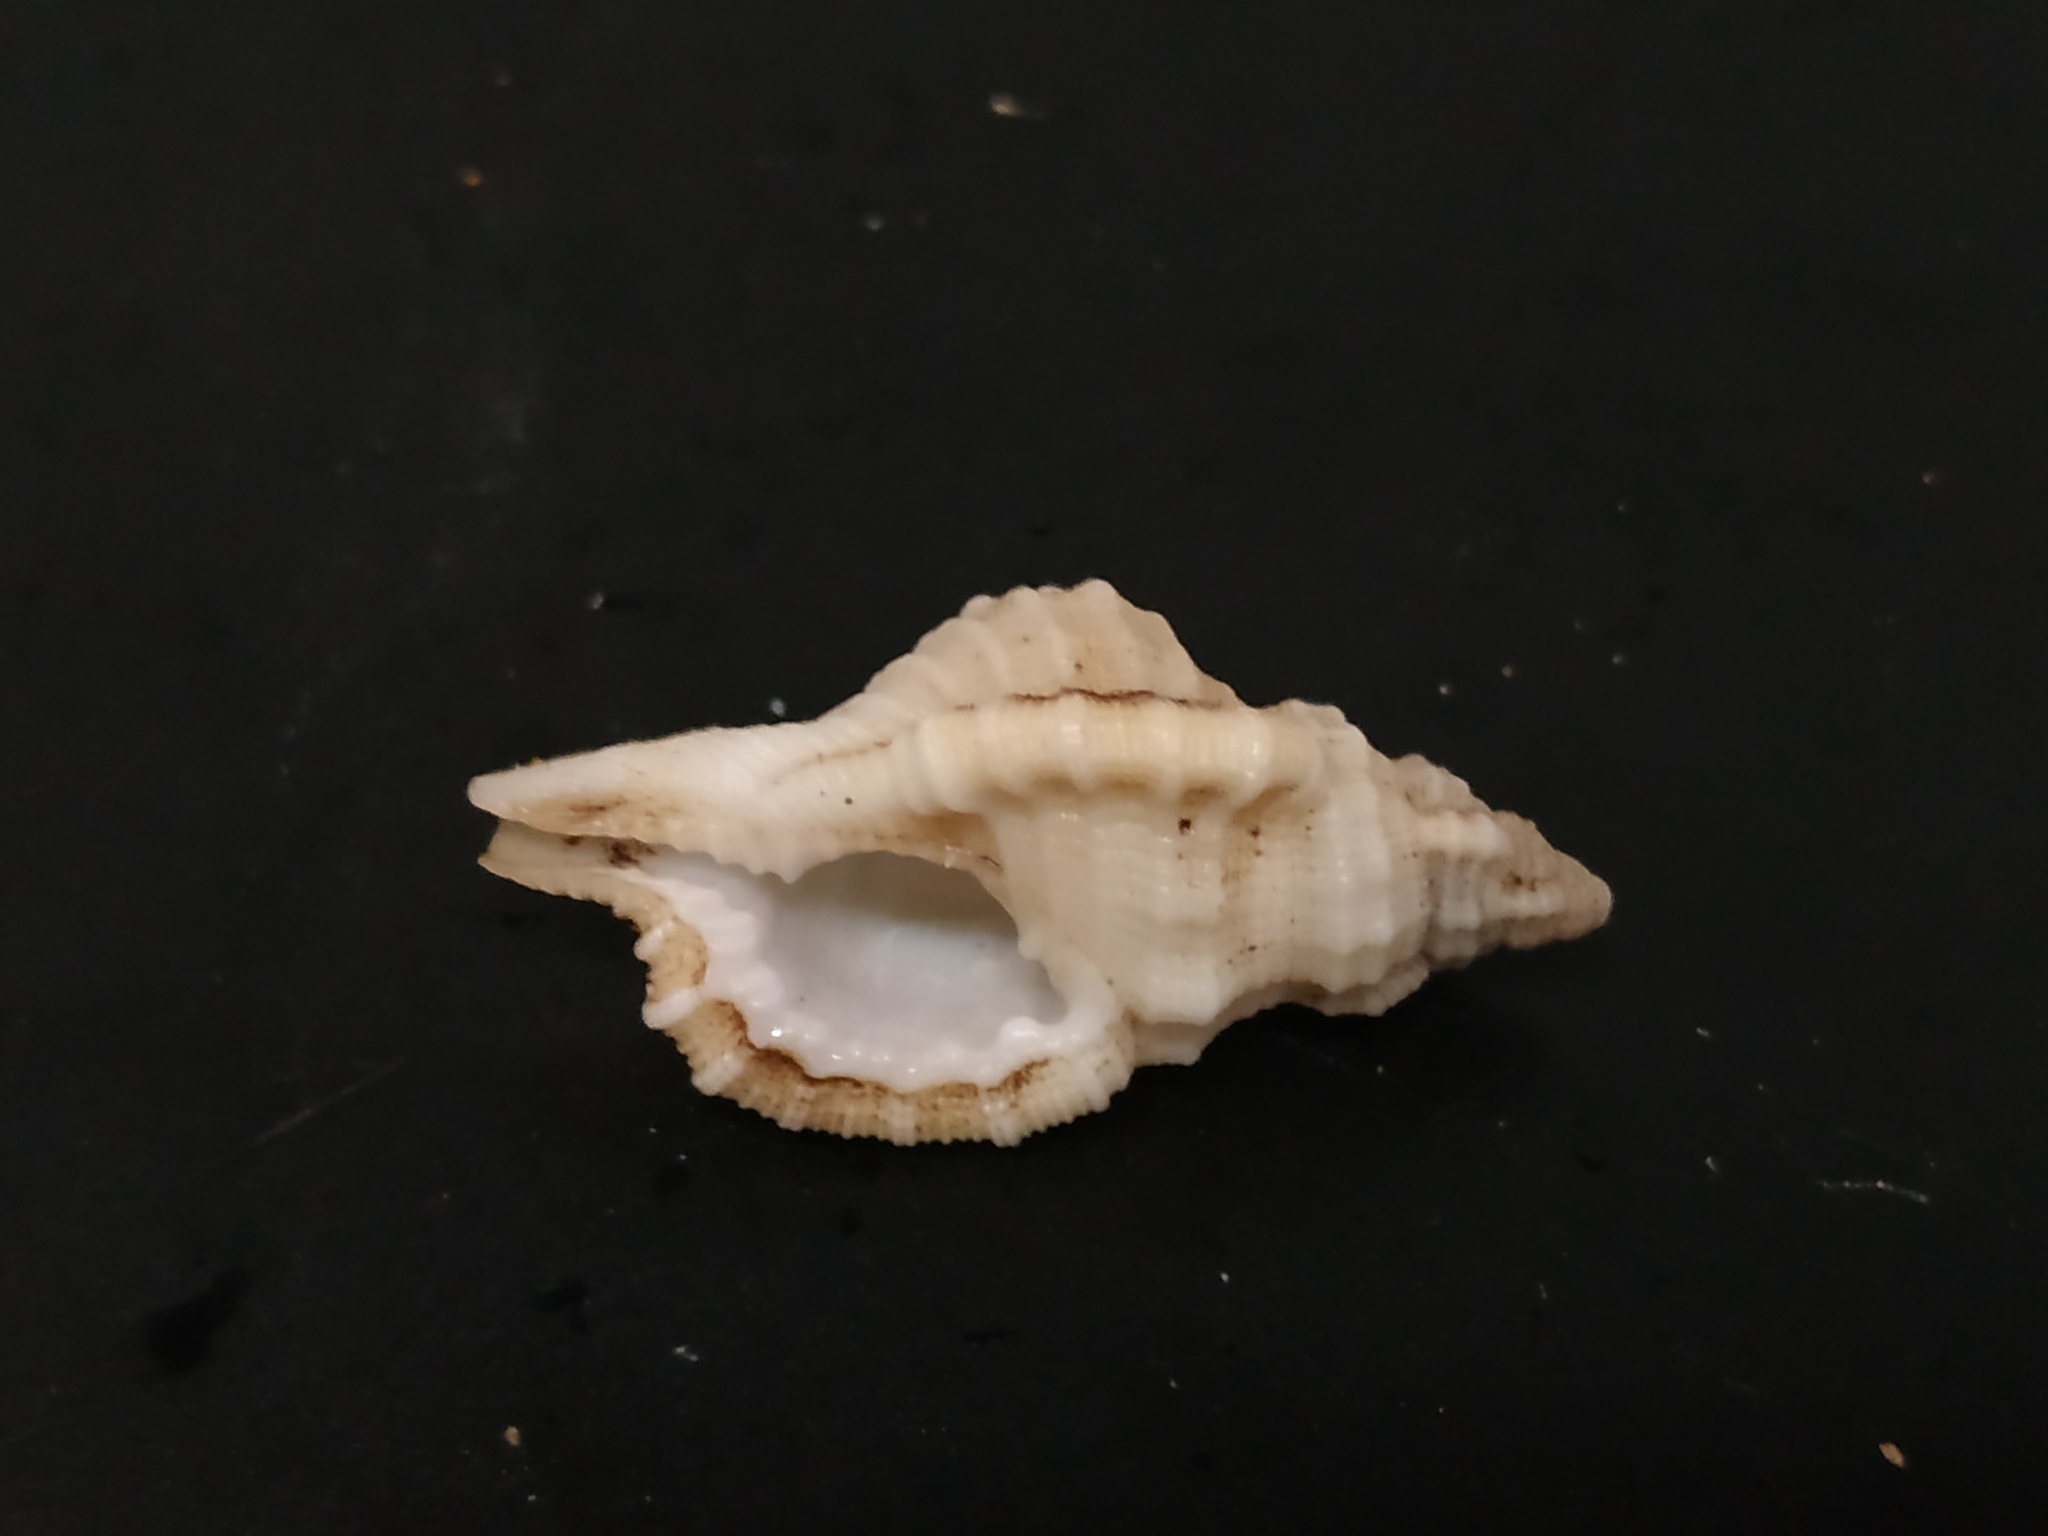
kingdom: Animalia
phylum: Mollusca
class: Gastropoda
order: Littorinimorpha
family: Cymatiidae
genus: Monoplex
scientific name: Monoplex mundus
